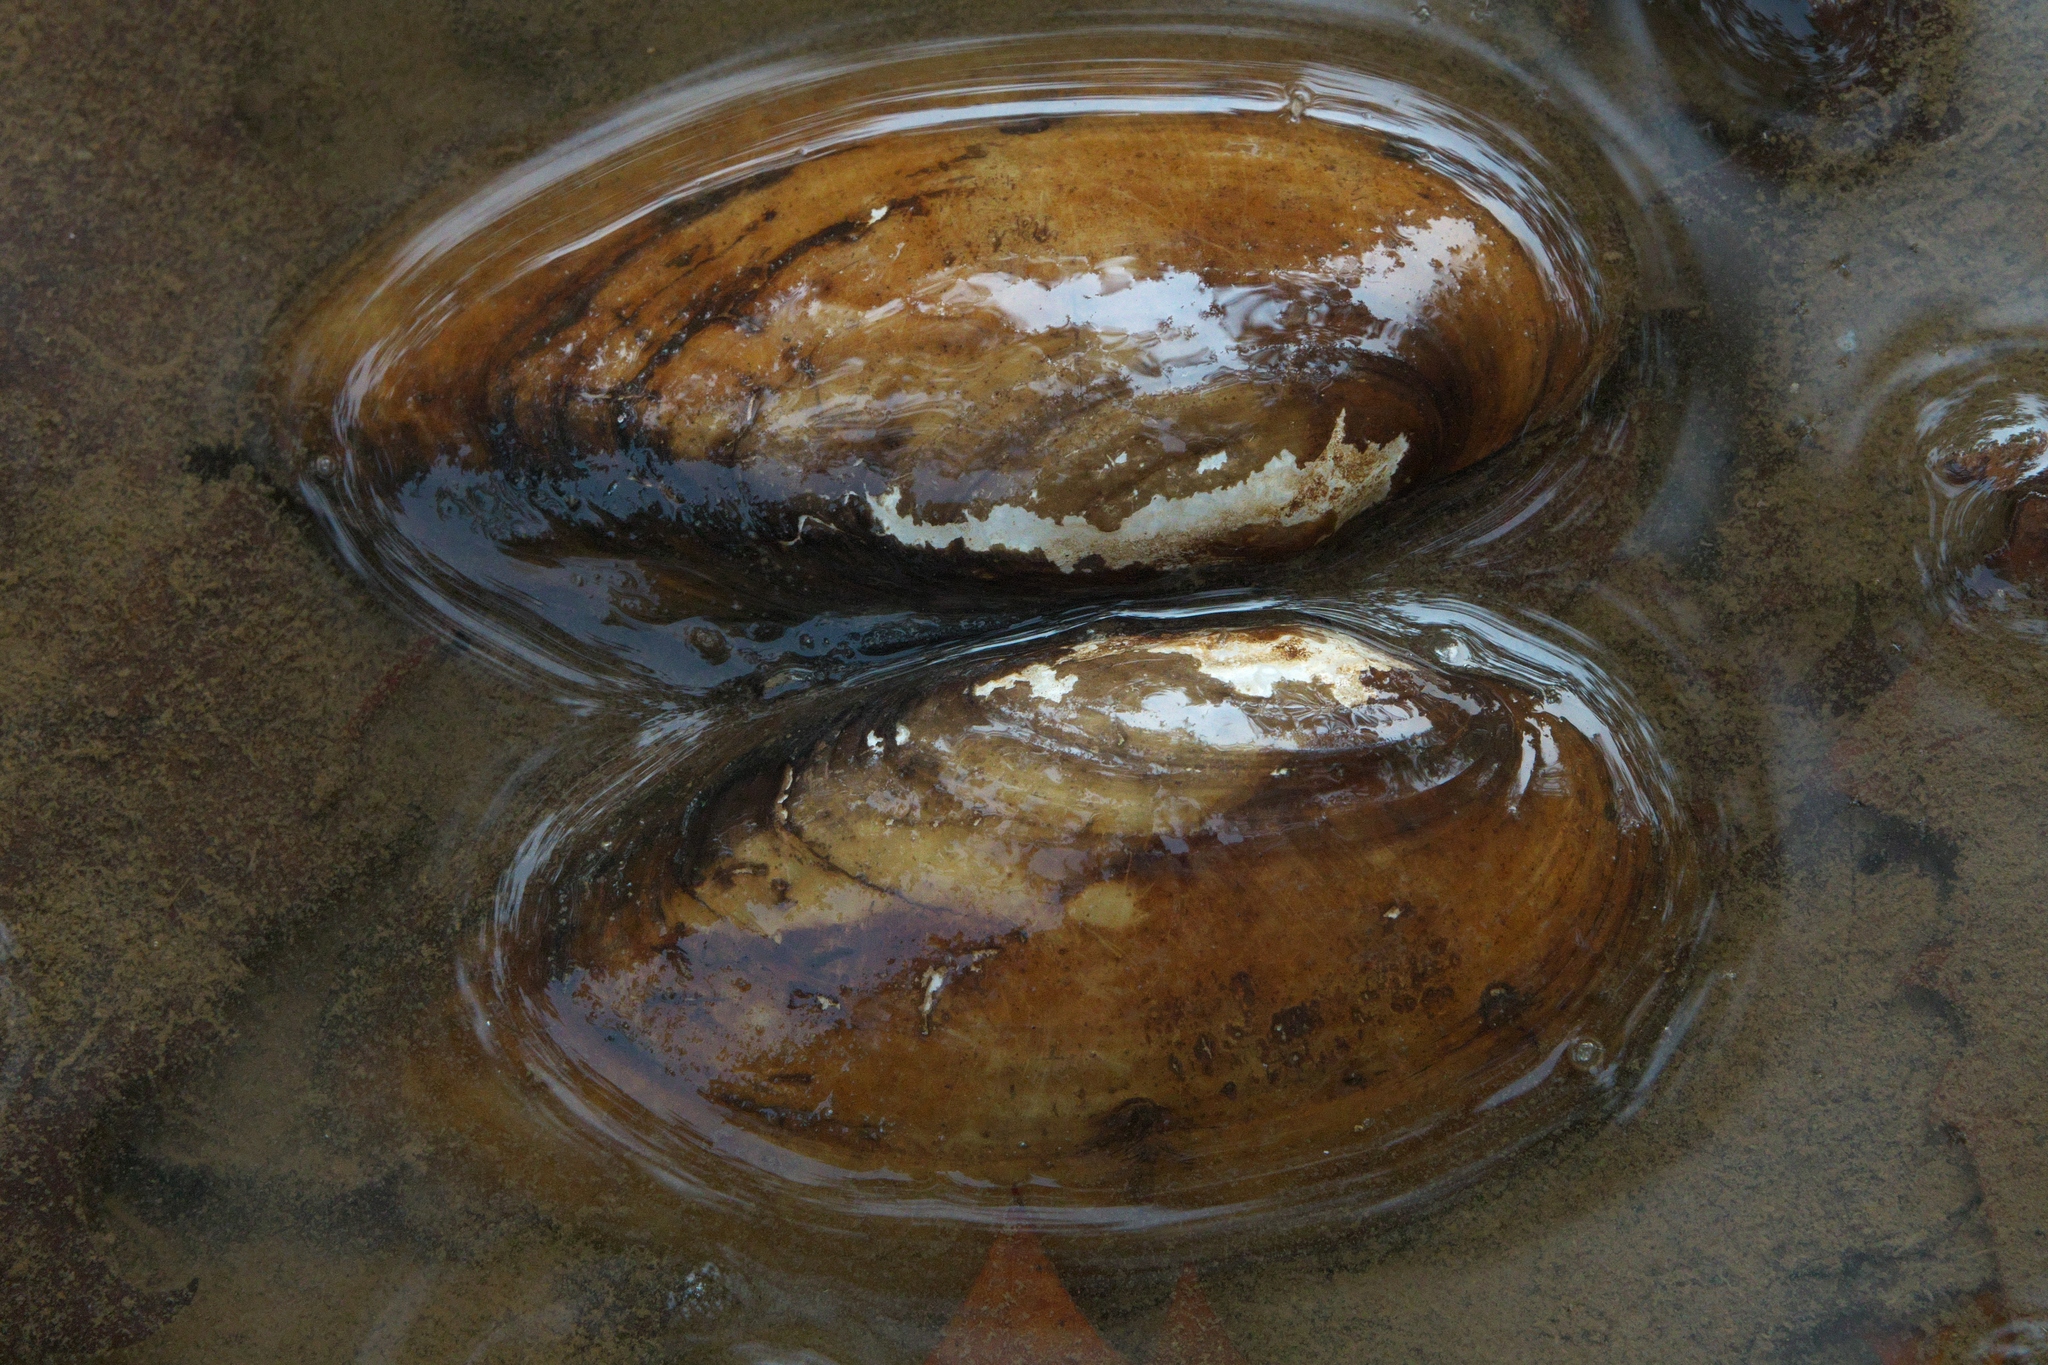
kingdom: Animalia
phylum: Mollusca
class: Bivalvia
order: Unionida
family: Unionidae
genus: Lampsilis
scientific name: Lampsilis teres
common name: Yellow sandshell
